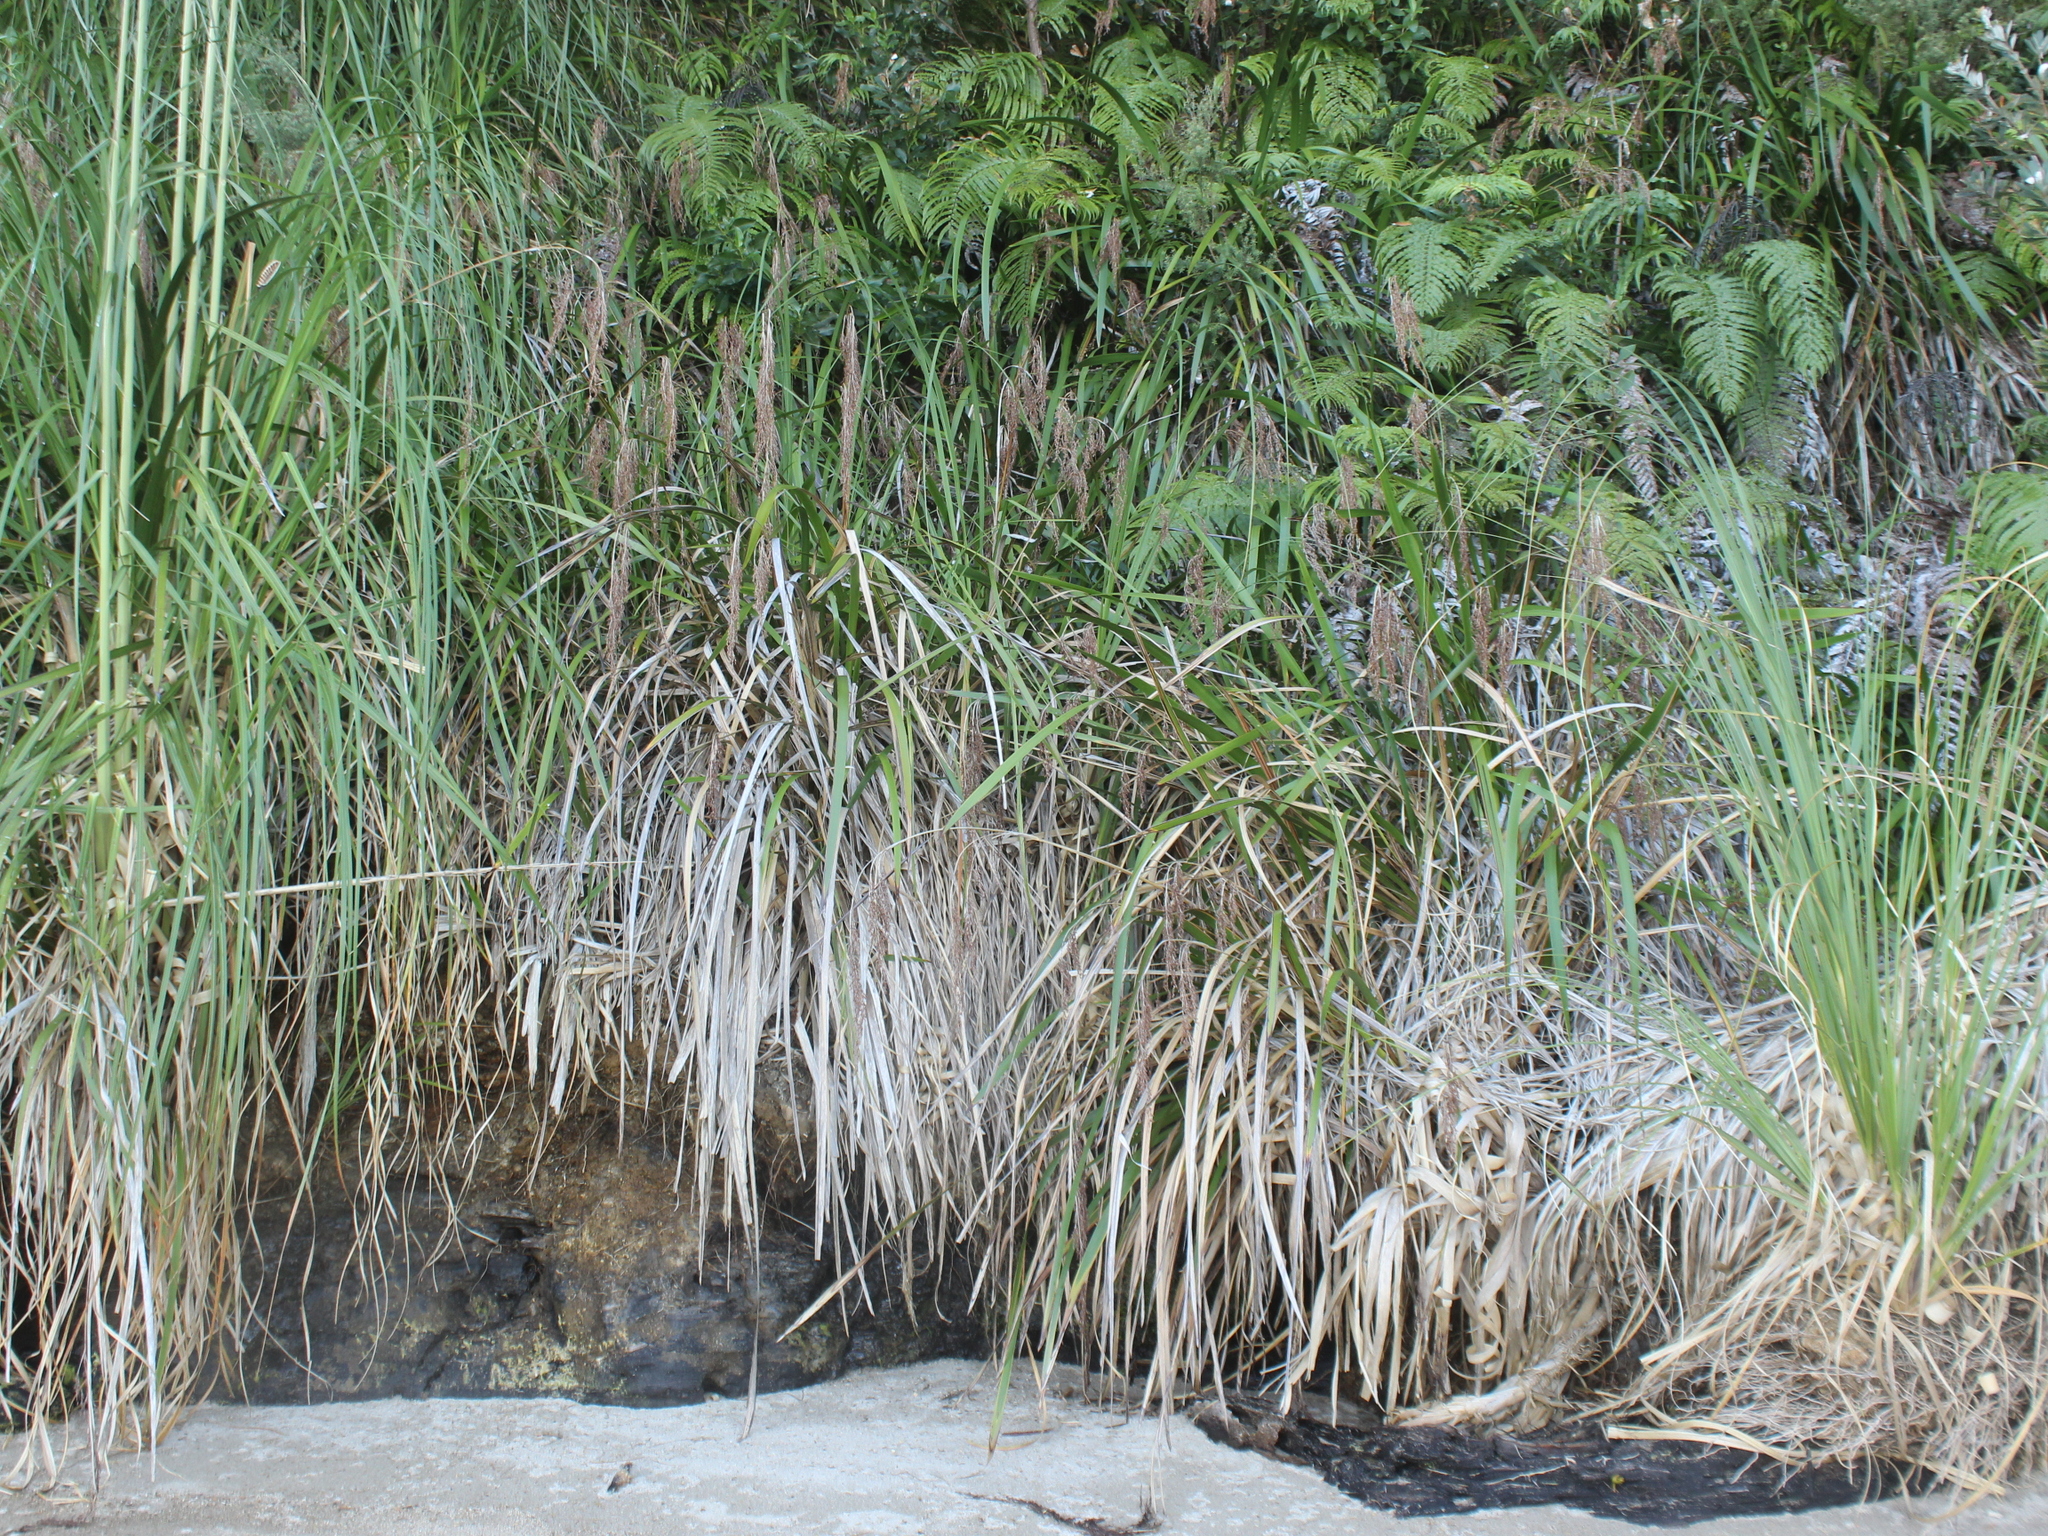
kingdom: Plantae
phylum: Tracheophyta
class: Liliopsida
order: Poales
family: Cyperaceae
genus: Machaerina
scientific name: Machaerina sinclairii
